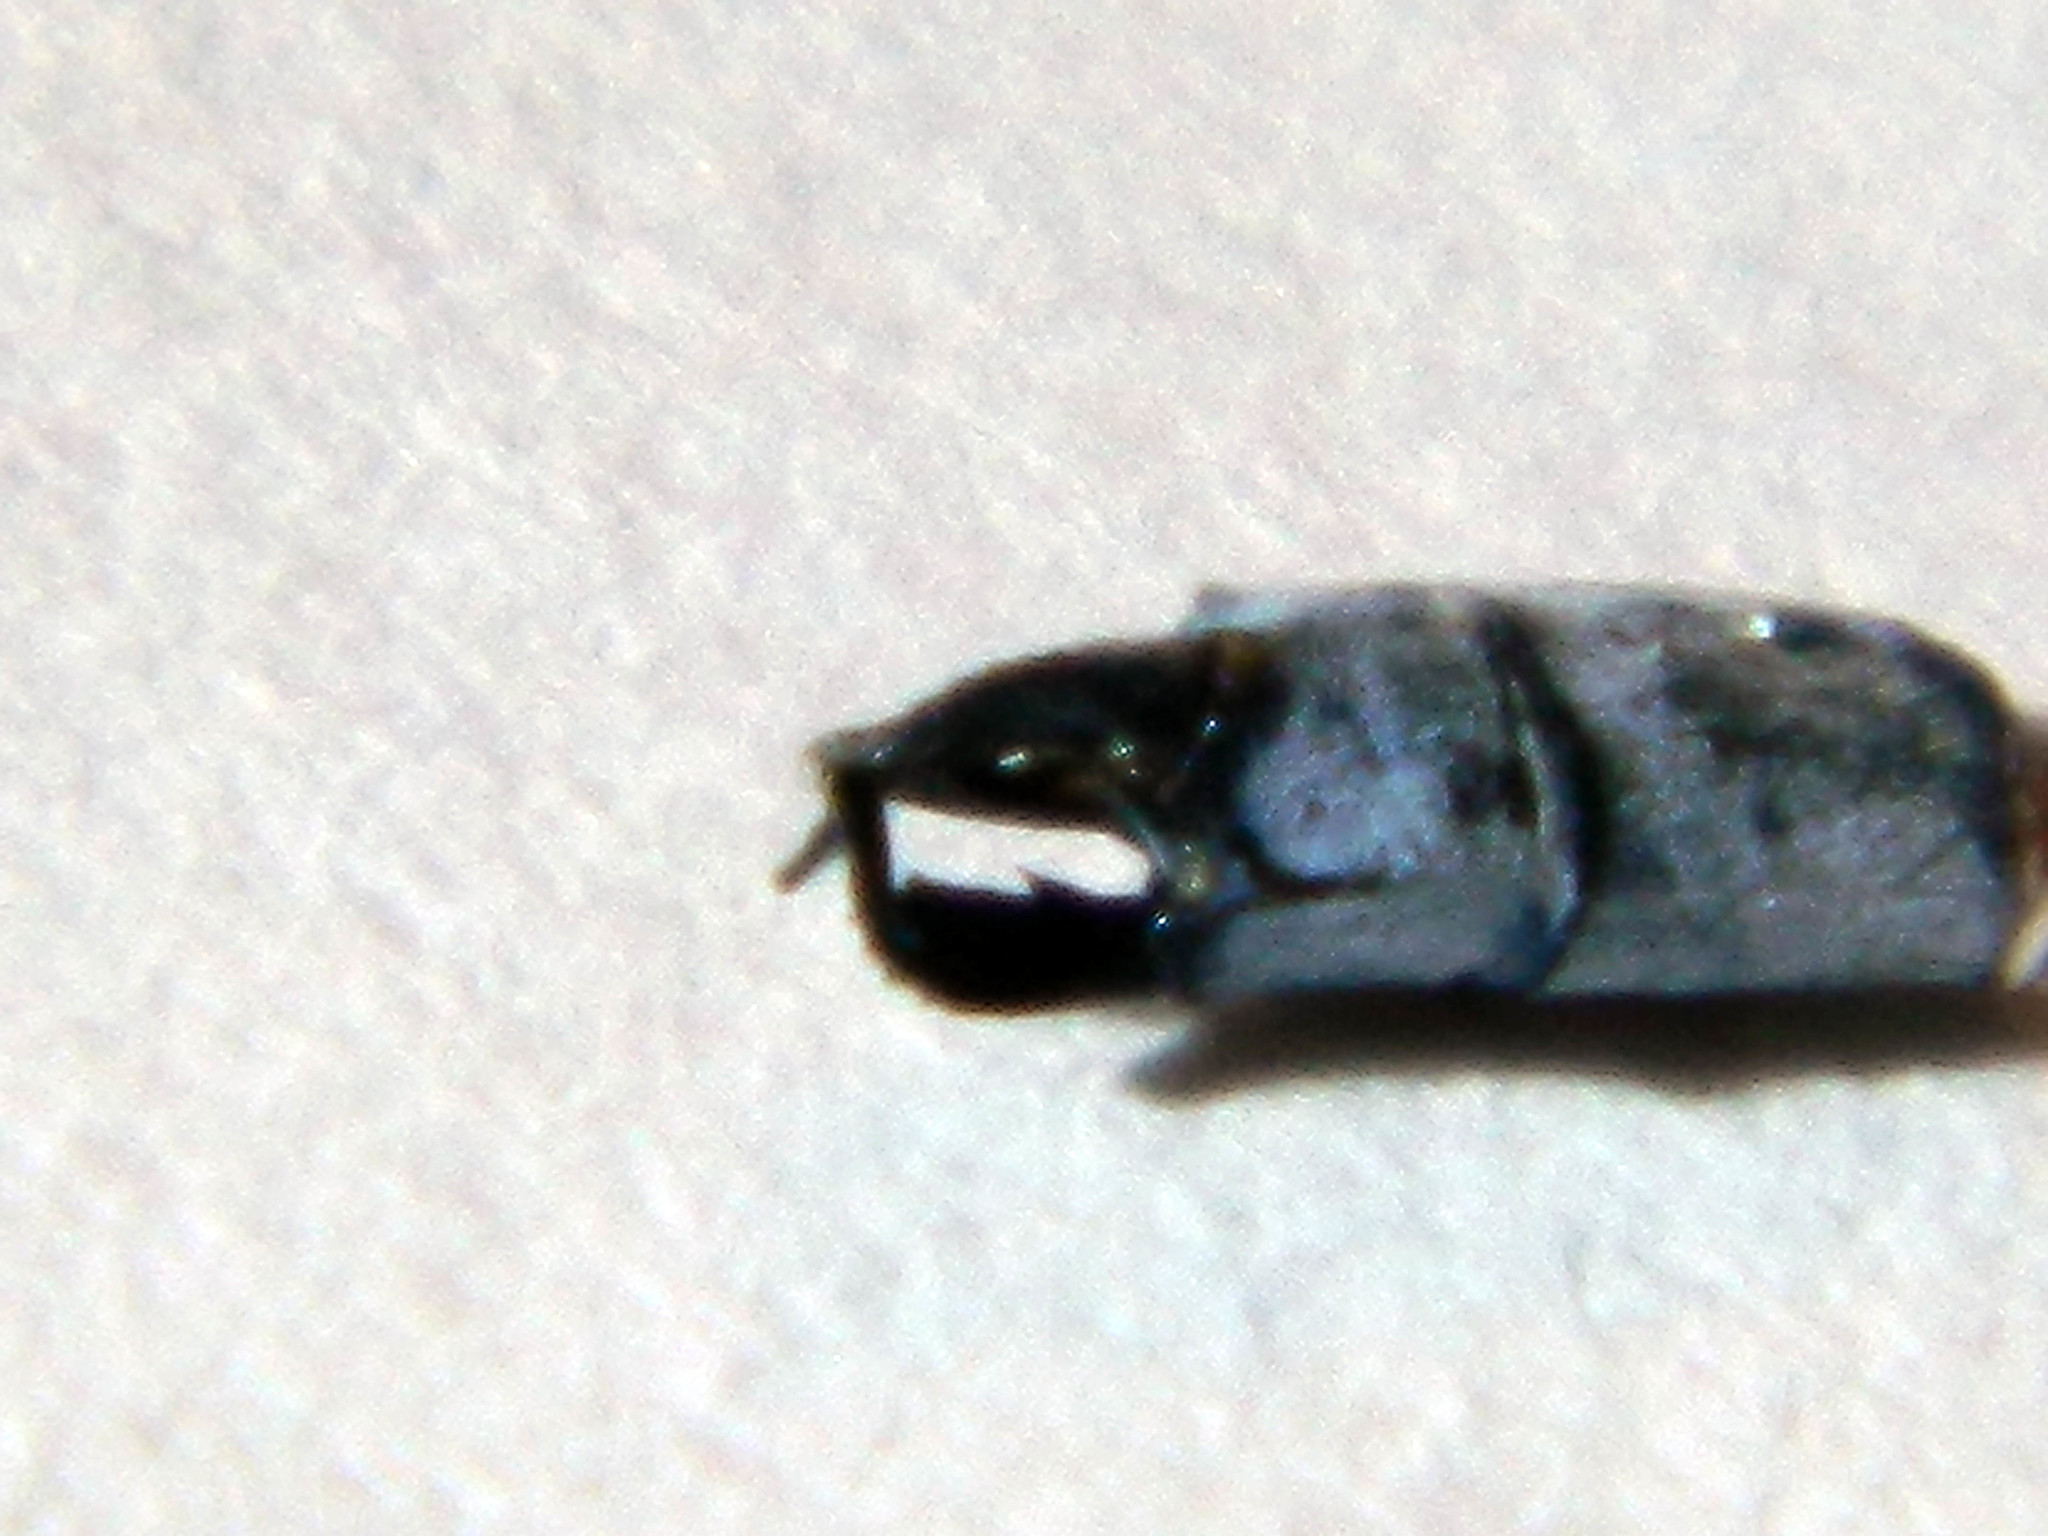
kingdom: Animalia
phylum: Arthropoda
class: Insecta
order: Odonata
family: Lestidae
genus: Lestes
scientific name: Lestes disjunctus
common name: Northern spreadwing
